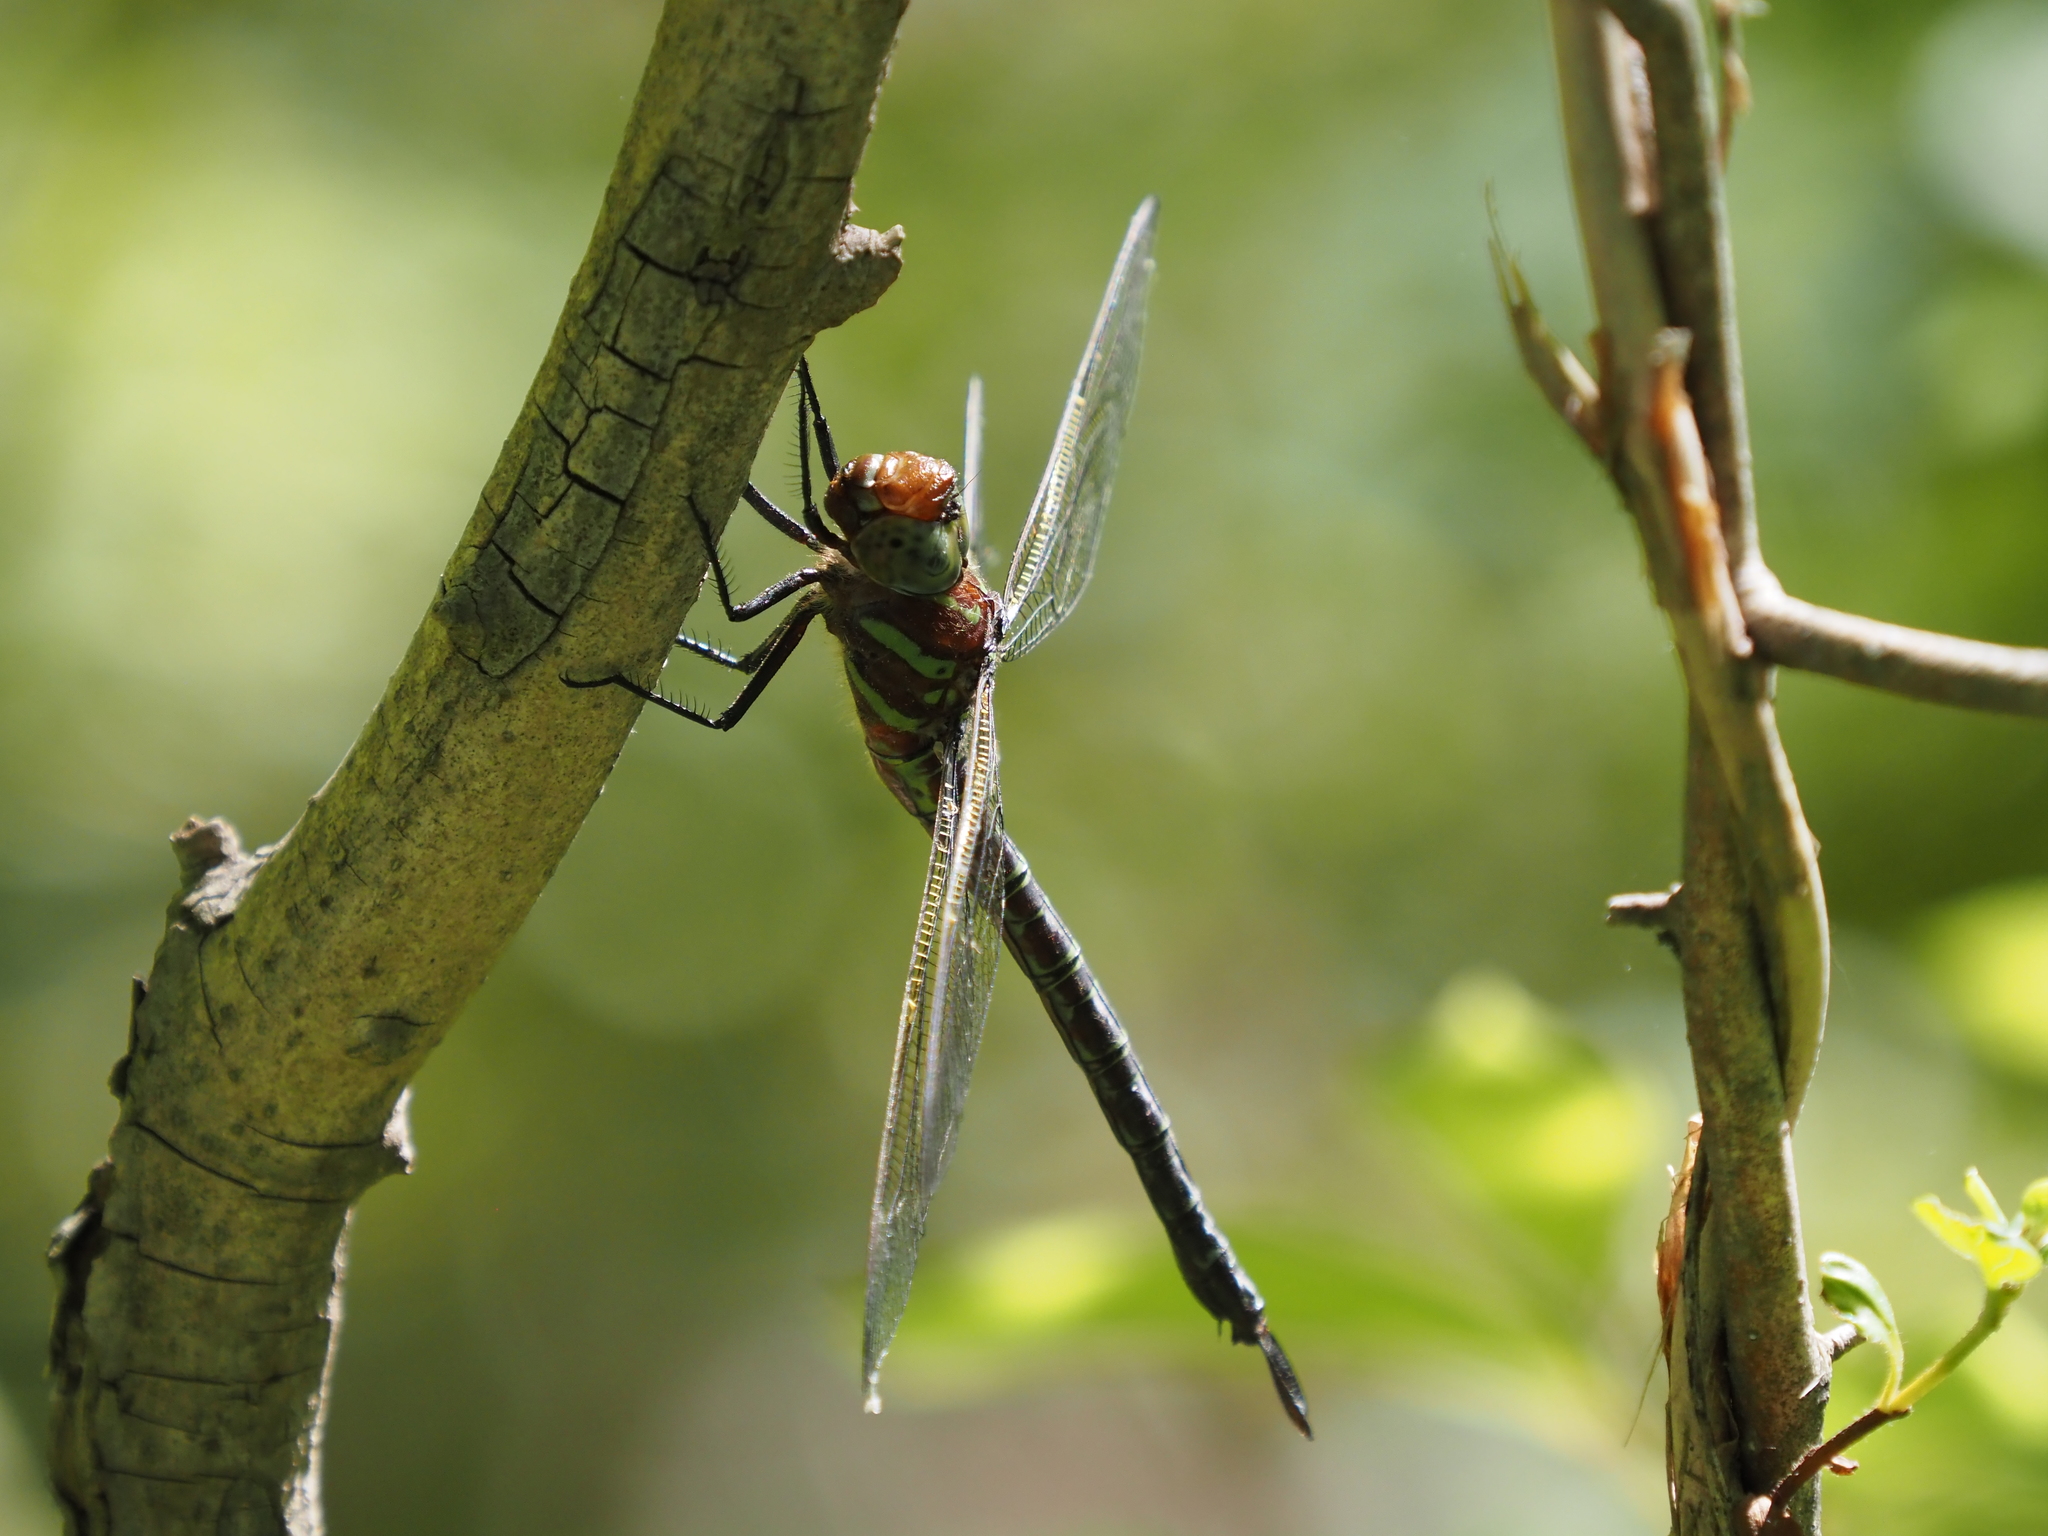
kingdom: Animalia
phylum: Arthropoda
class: Insecta
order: Odonata
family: Aeshnidae
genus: Epiaeschna
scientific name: Epiaeschna heros
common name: Swamp darner
